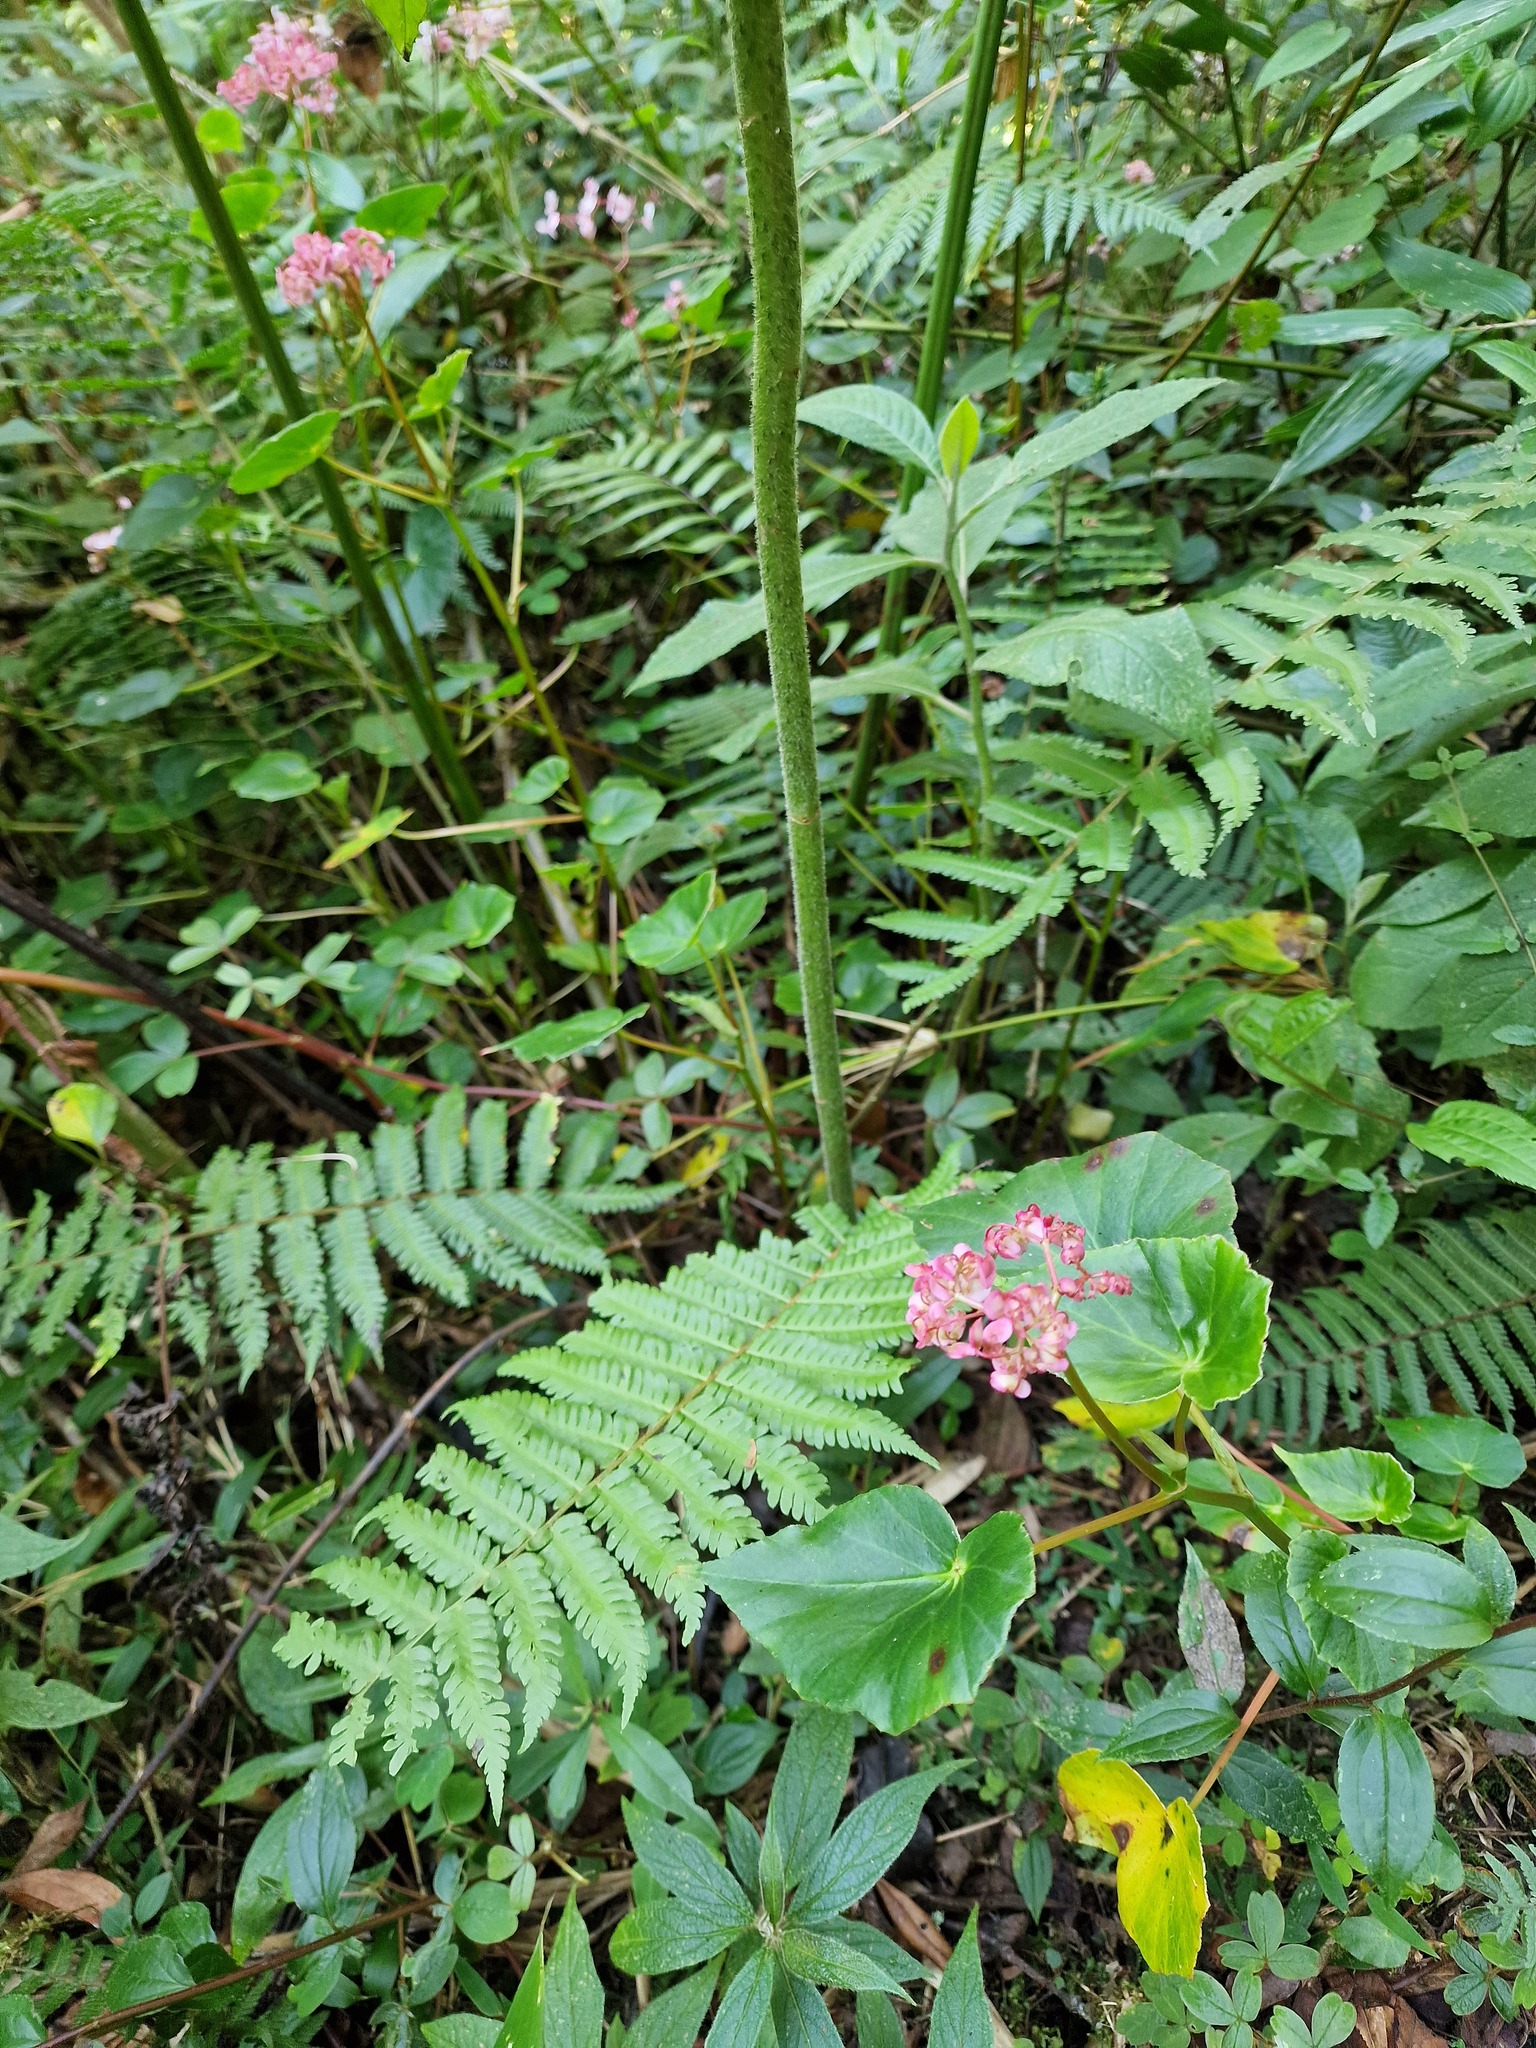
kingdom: Plantae
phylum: Tracheophyta
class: Magnoliopsida
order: Cucurbitales
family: Begoniaceae
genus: Begonia
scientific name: Begonia bracteosa
